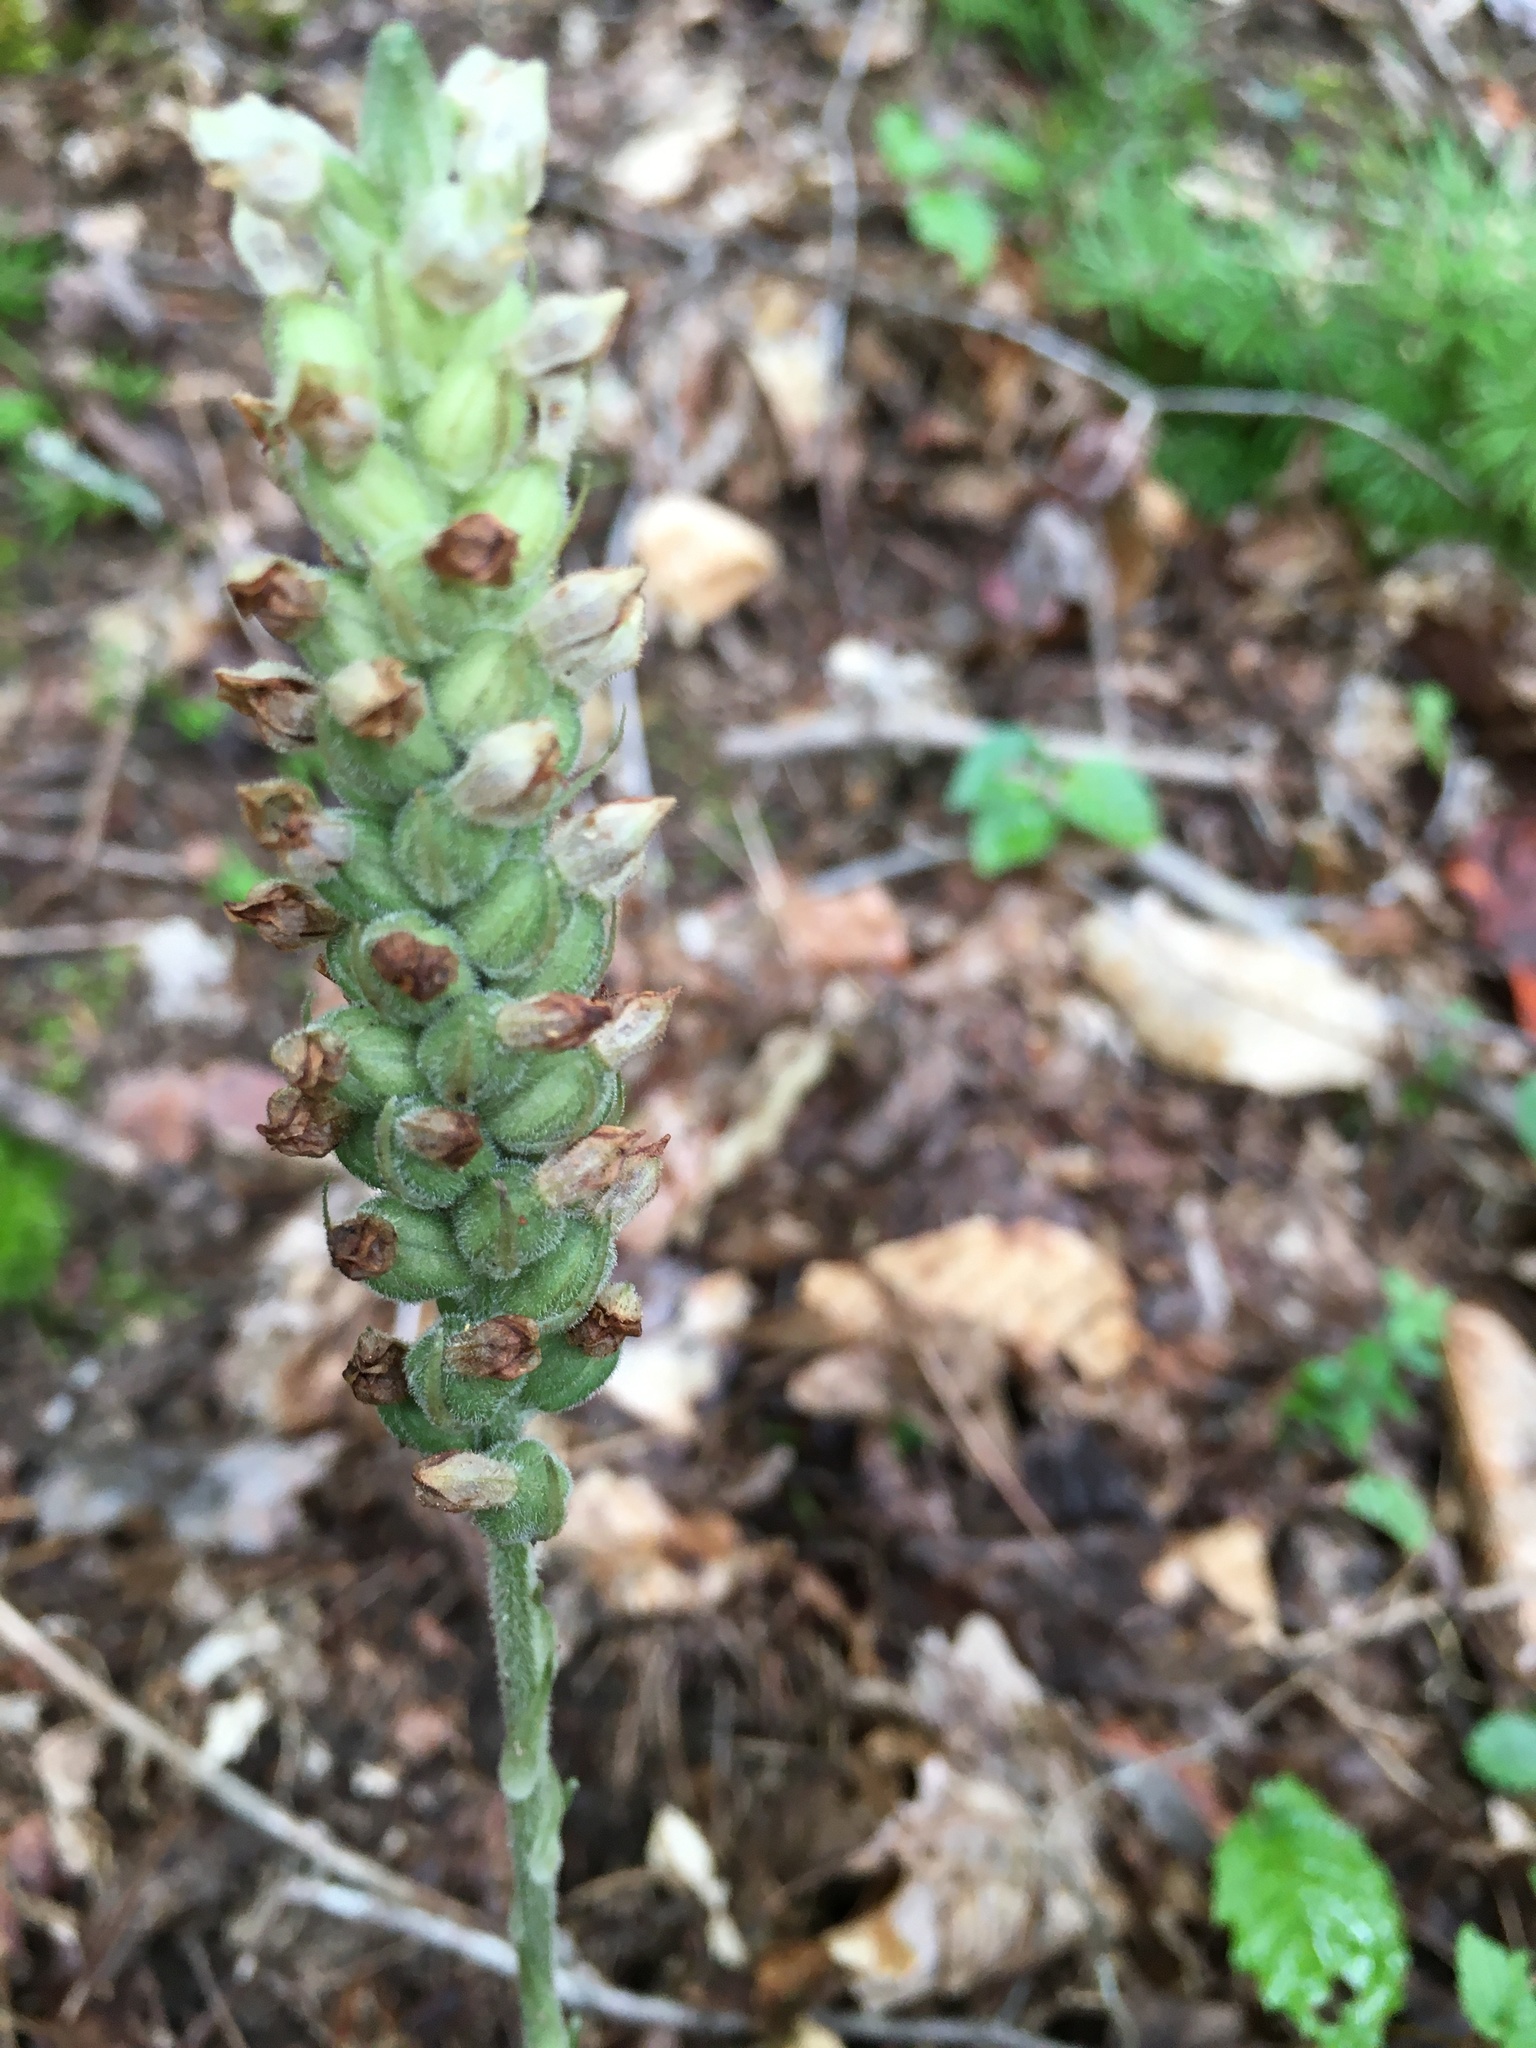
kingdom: Plantae
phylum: Tracheophyta
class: Liliopsida
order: Asparagales
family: Orchidaceae
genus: Goodyera
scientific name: Goodyera pubescens
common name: Downy rattlesnake-plantain
